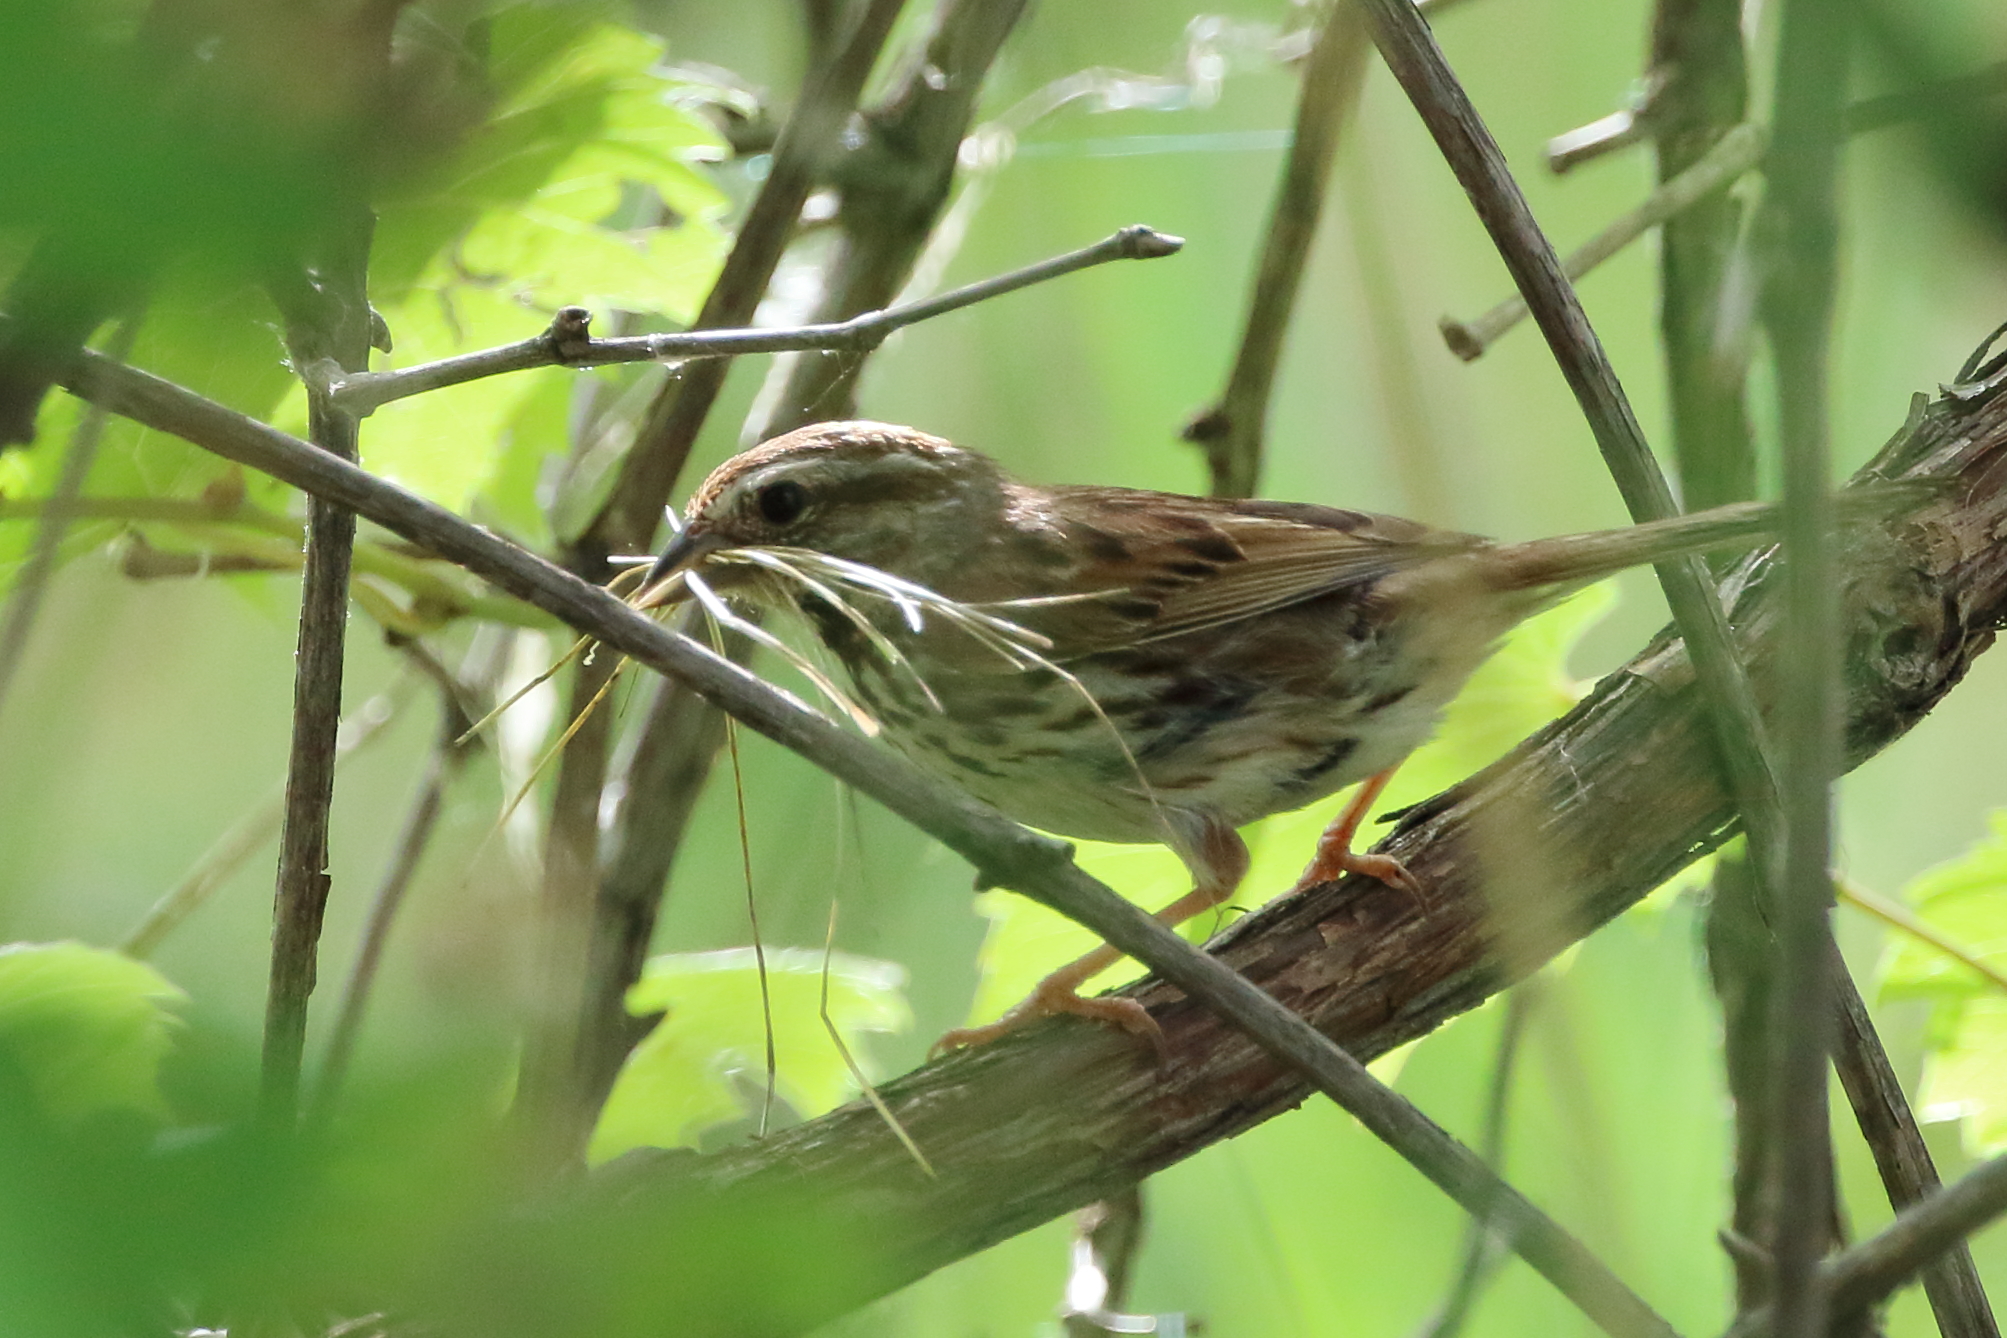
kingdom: Animalia
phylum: Chordata
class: Aves
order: Passeriformes
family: Passerellidae
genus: Melospiza
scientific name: Melospiza melodia
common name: Song sparrow
